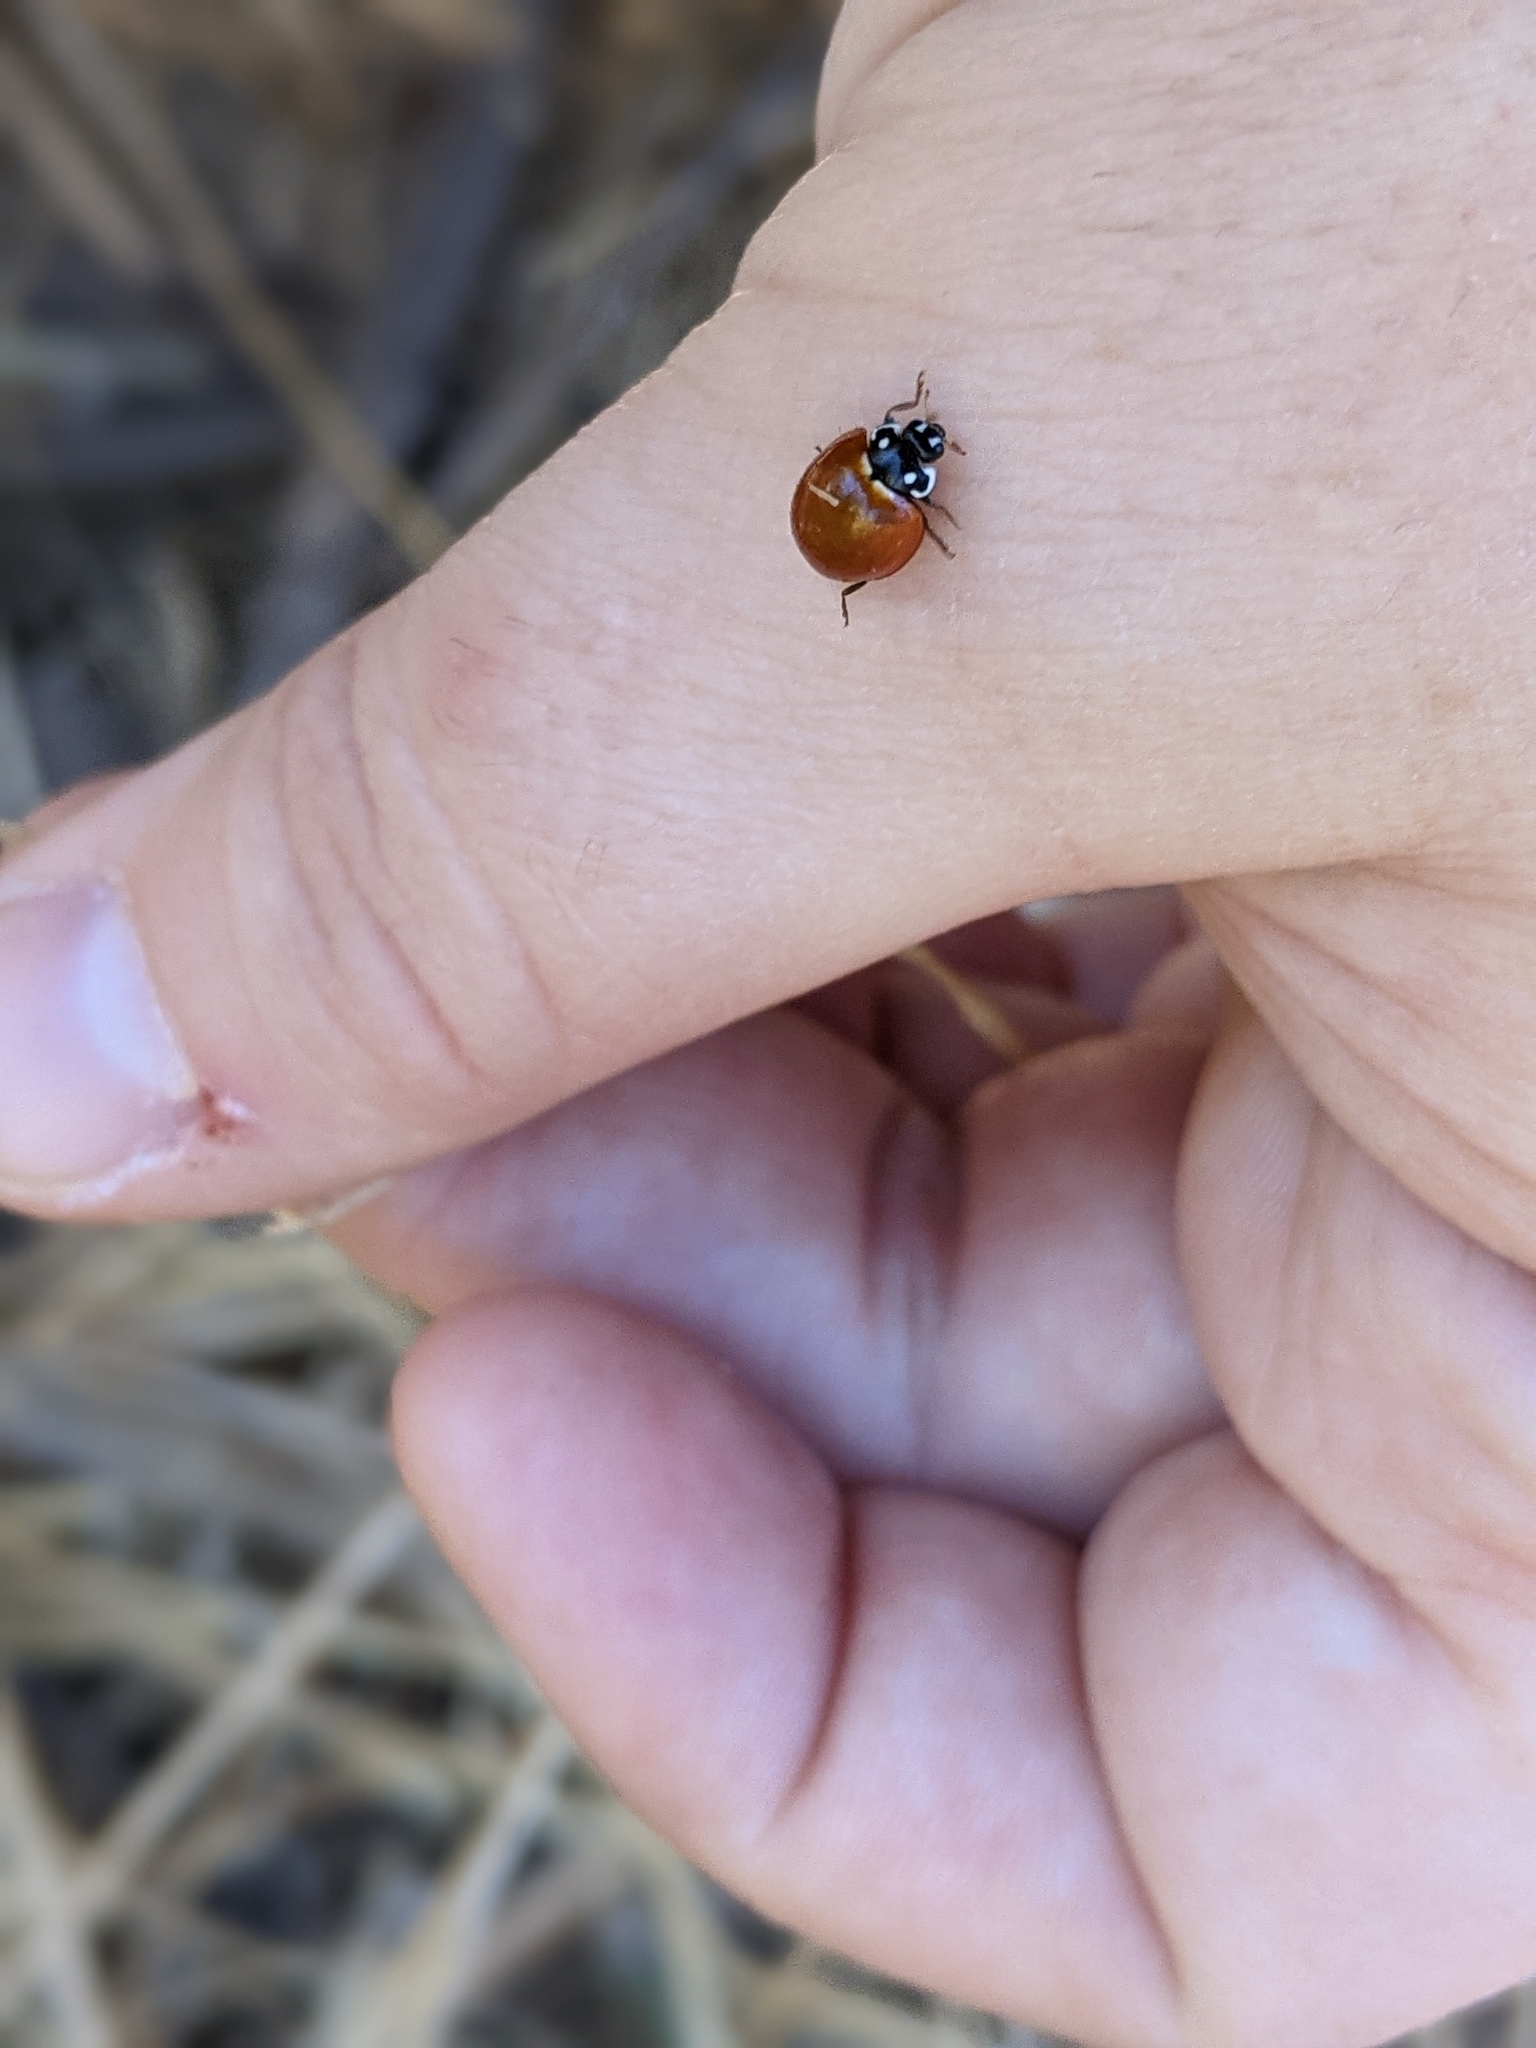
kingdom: Animalia
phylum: Arthropoda
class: Insecta
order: Coleoptera
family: Coccinellidae
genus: Cycloneda
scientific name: Cycloneda sanguinea
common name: Ladybird beetle
